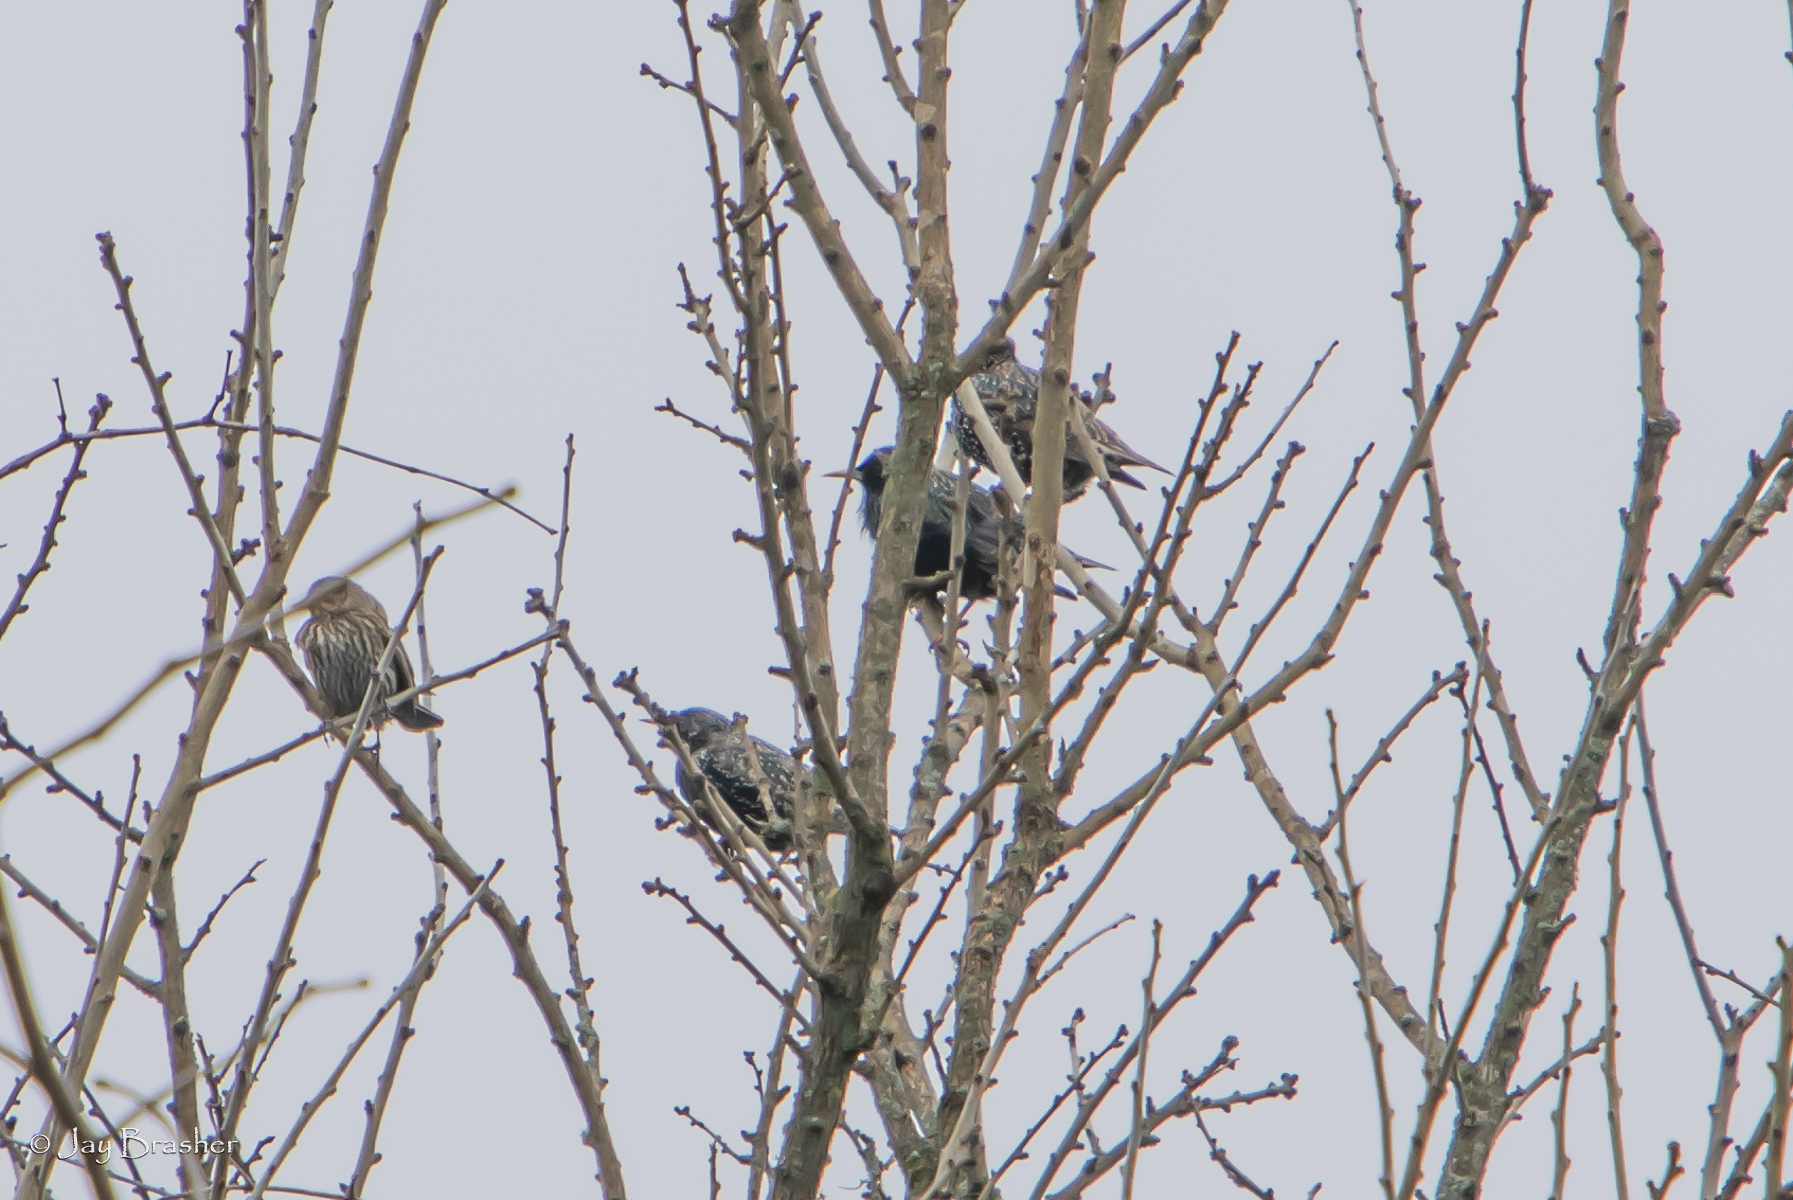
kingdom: Animalia
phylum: Chordata
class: Aves
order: Passeriformes
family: Sturnidae
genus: Sturnus
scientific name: Sturnus vulgaris
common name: Common starling
